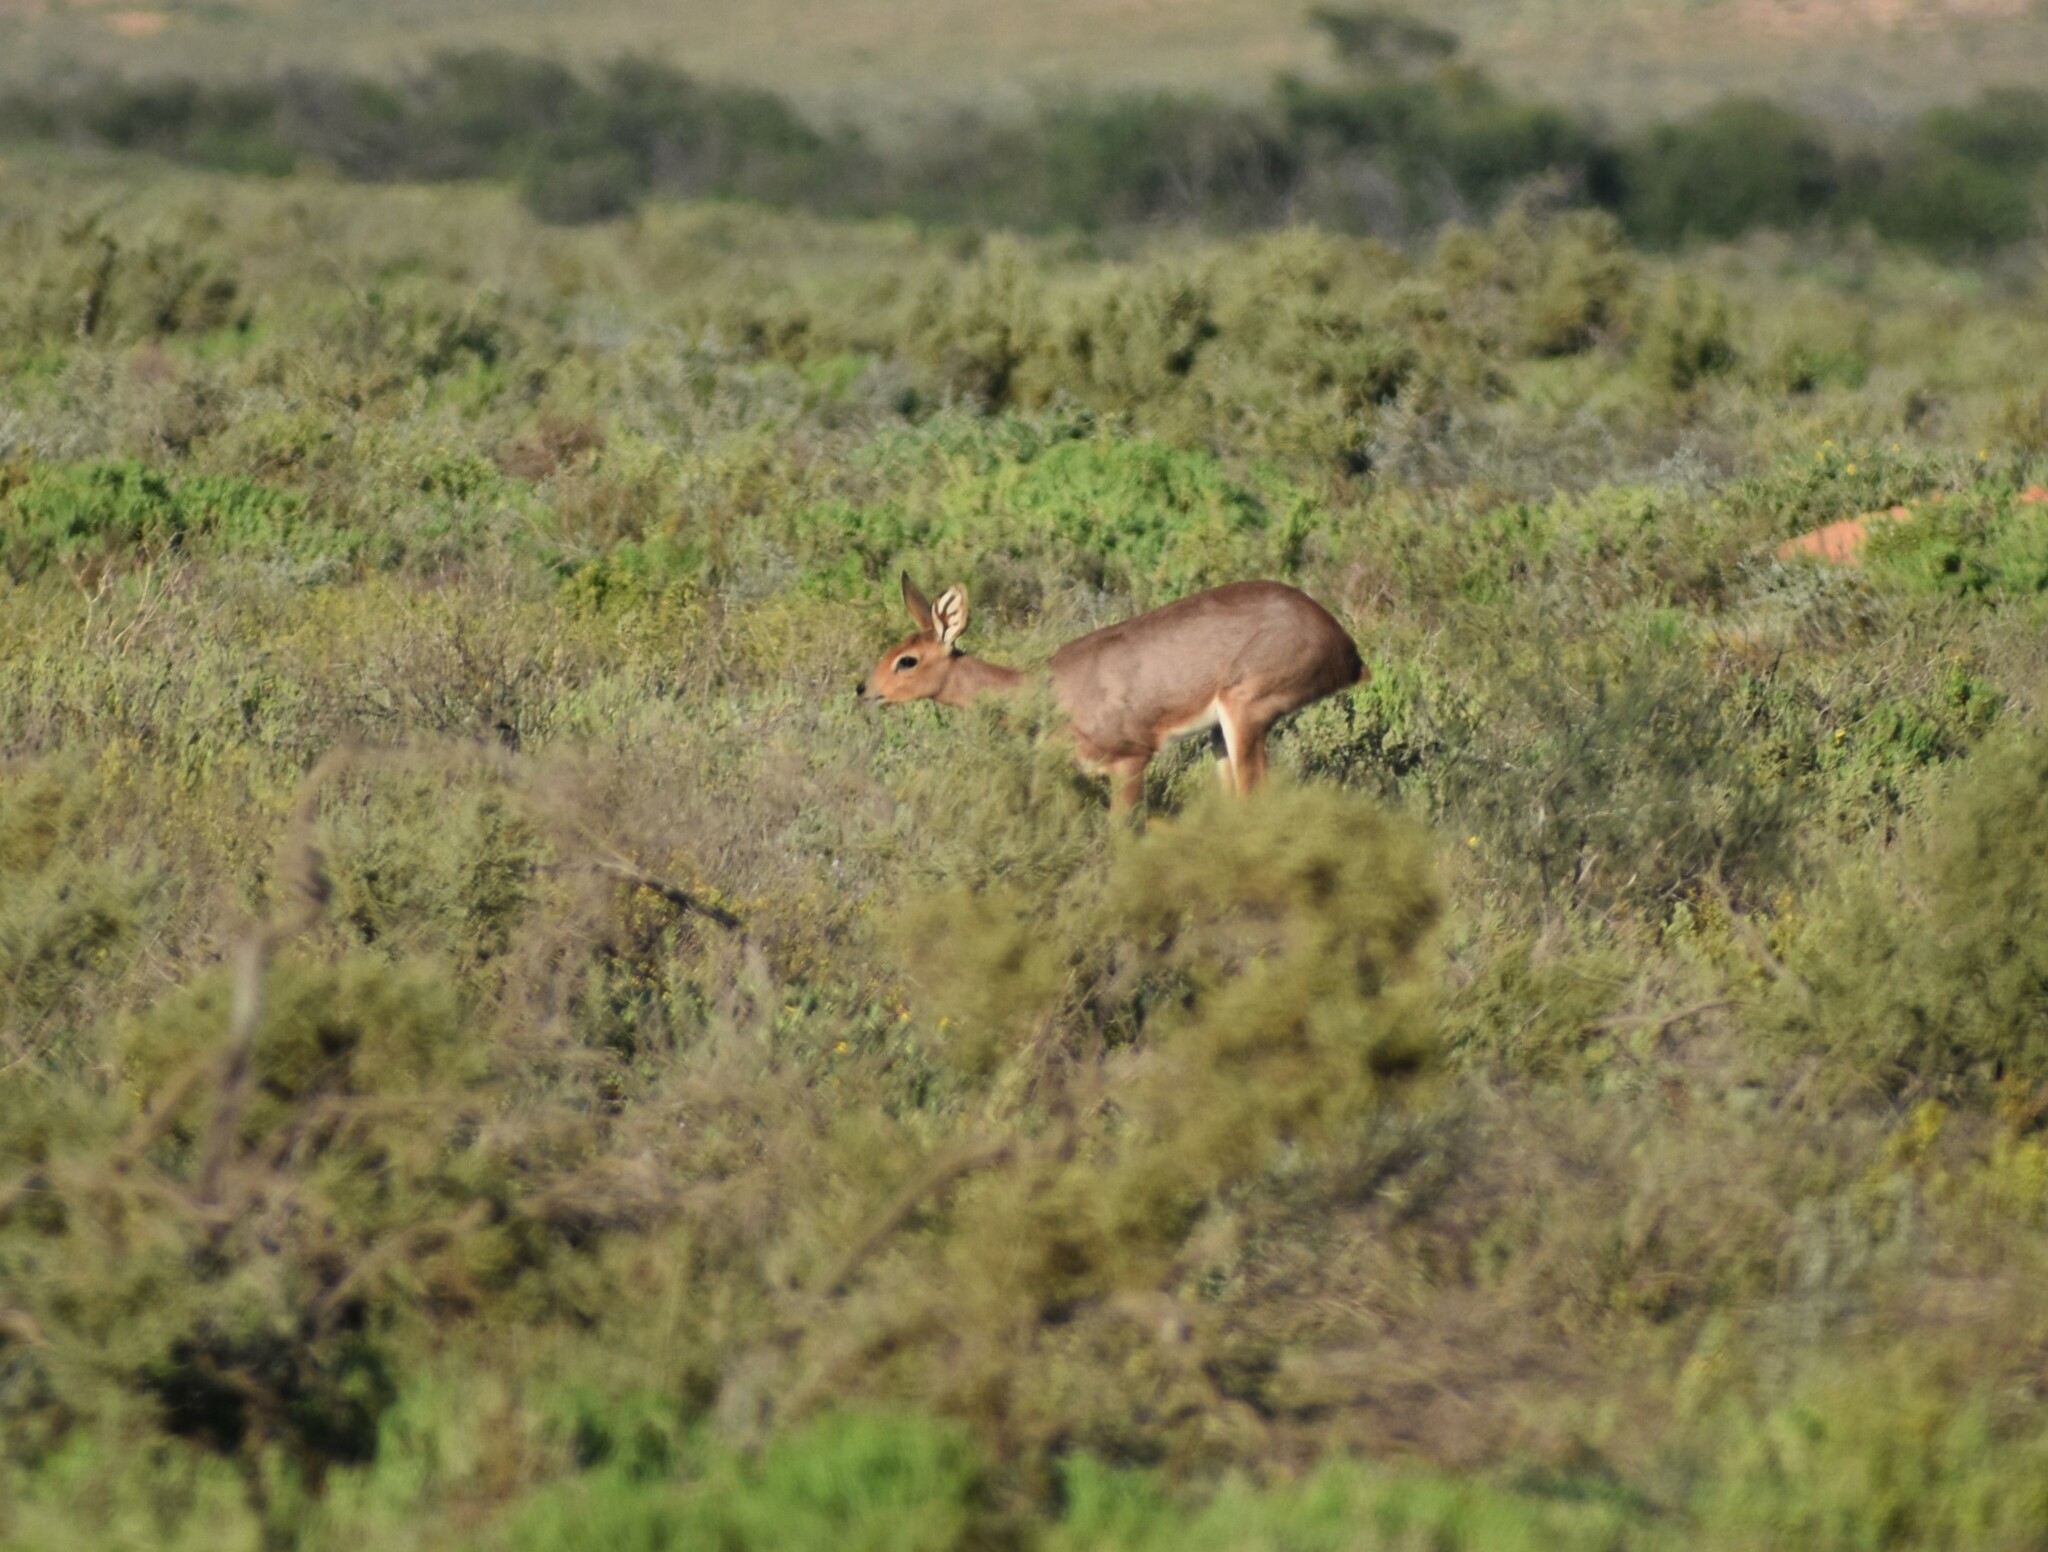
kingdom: Animalia
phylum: Chordata
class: Mammalia
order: Artiodactyla
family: Bovidae
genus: Raphicerus
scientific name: Raphicerus campestris
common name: Steenbok
